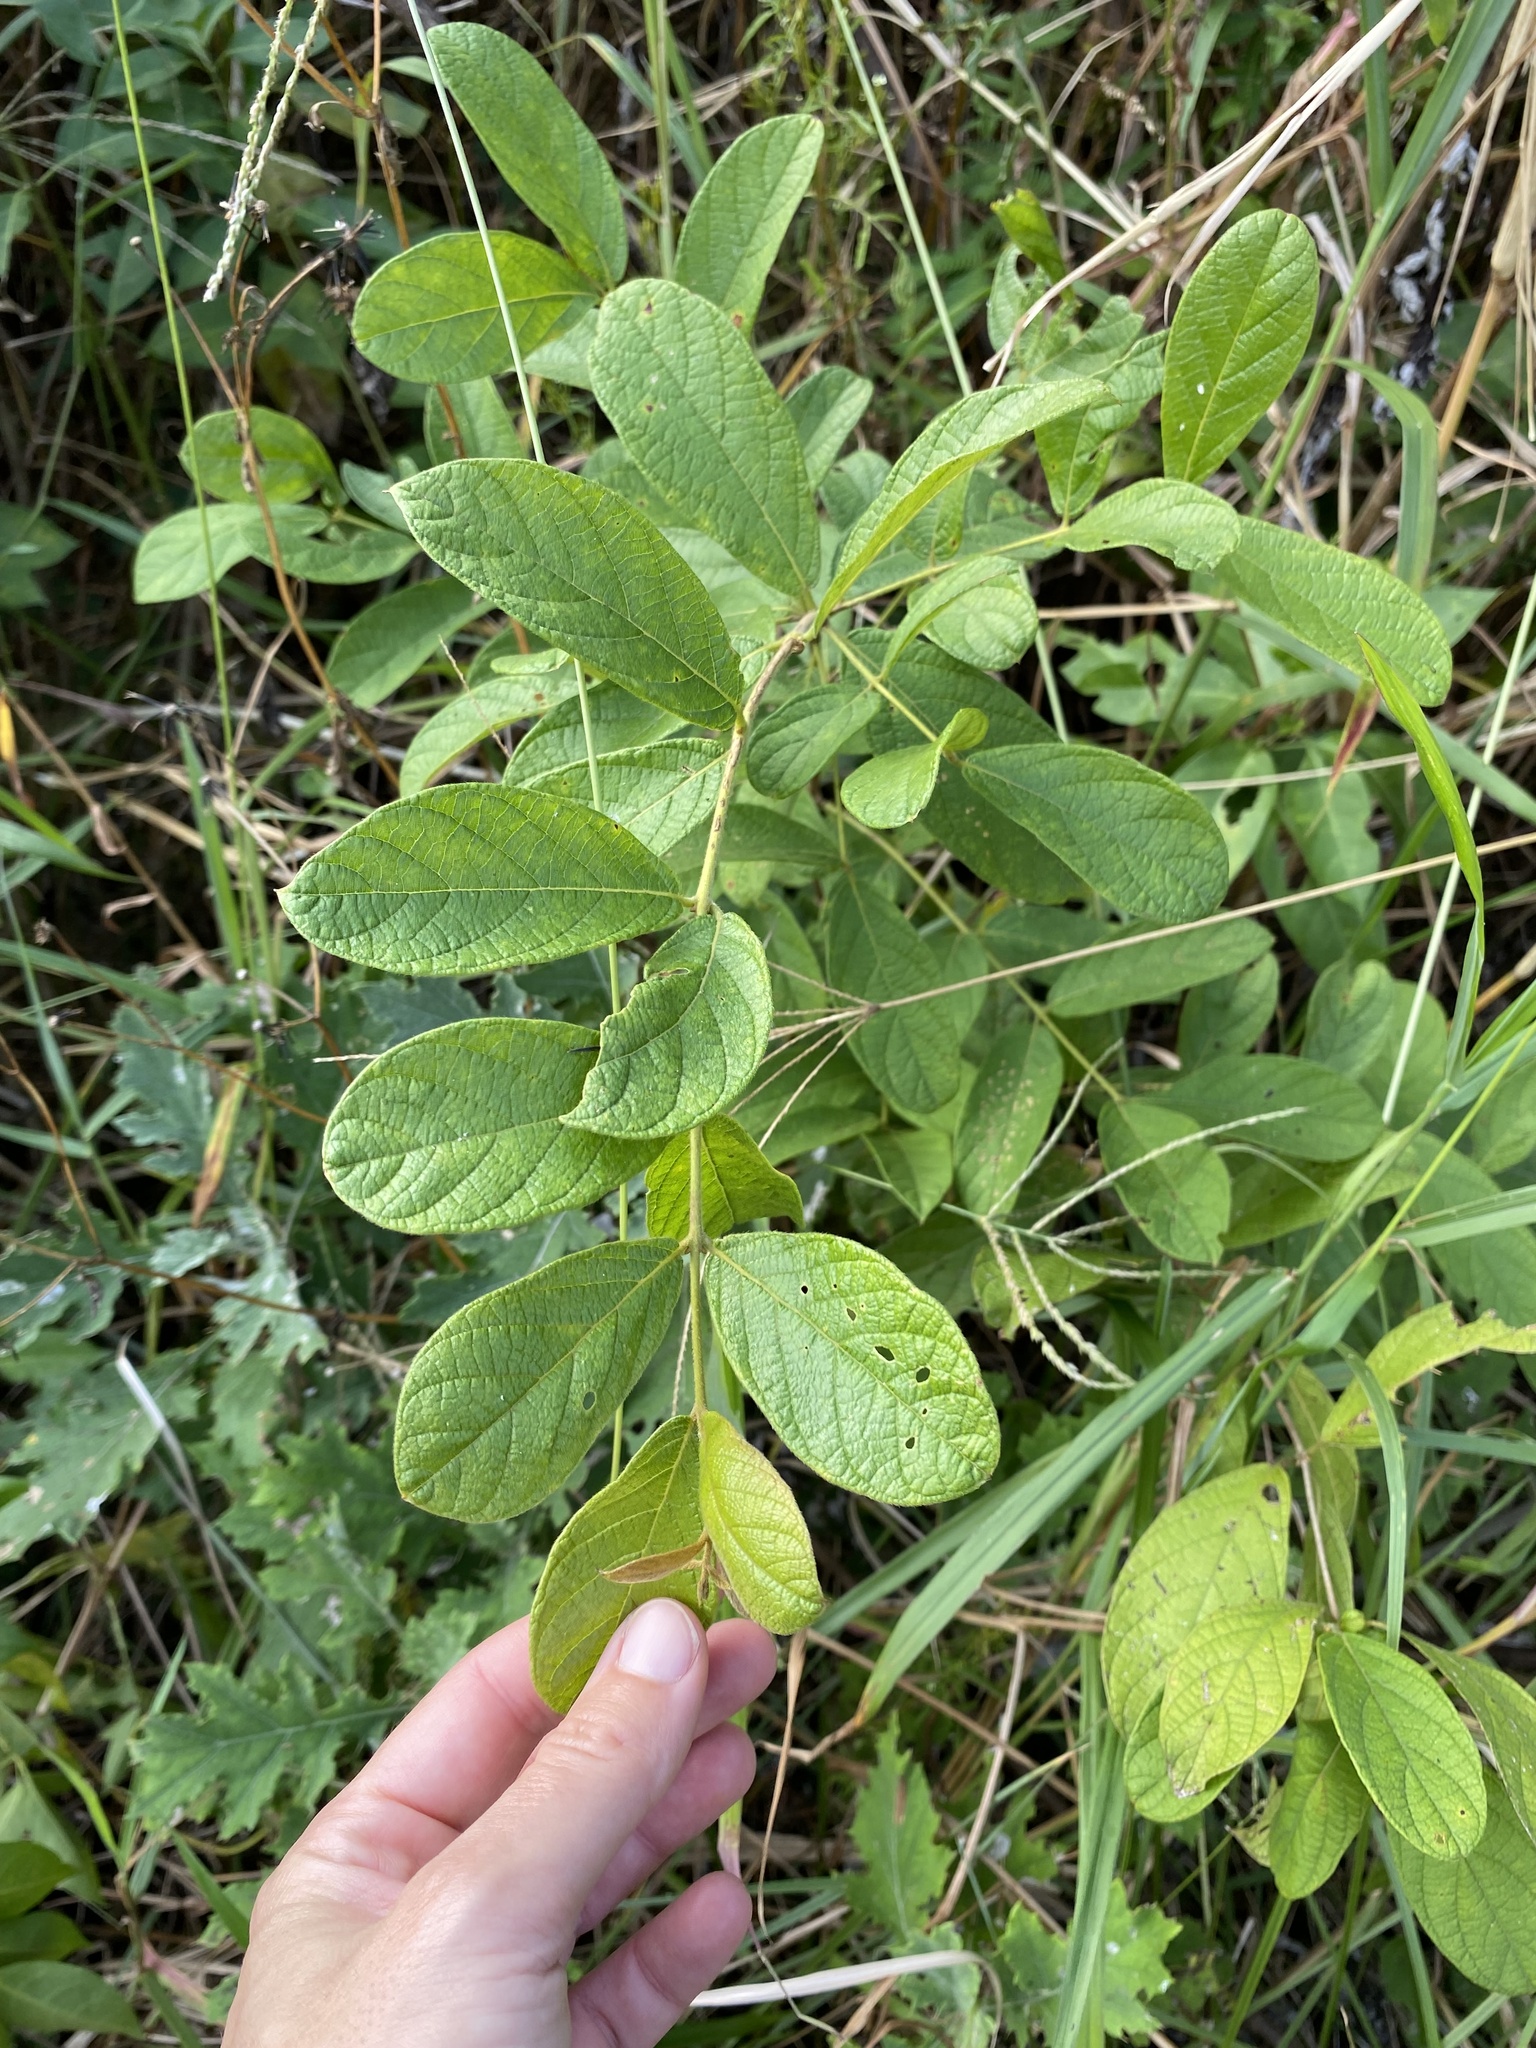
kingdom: Plantae
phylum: Tracheophyta
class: Magnoliopsida
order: Myrtales
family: Combretaceae
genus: Combretum
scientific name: Combretum molle
